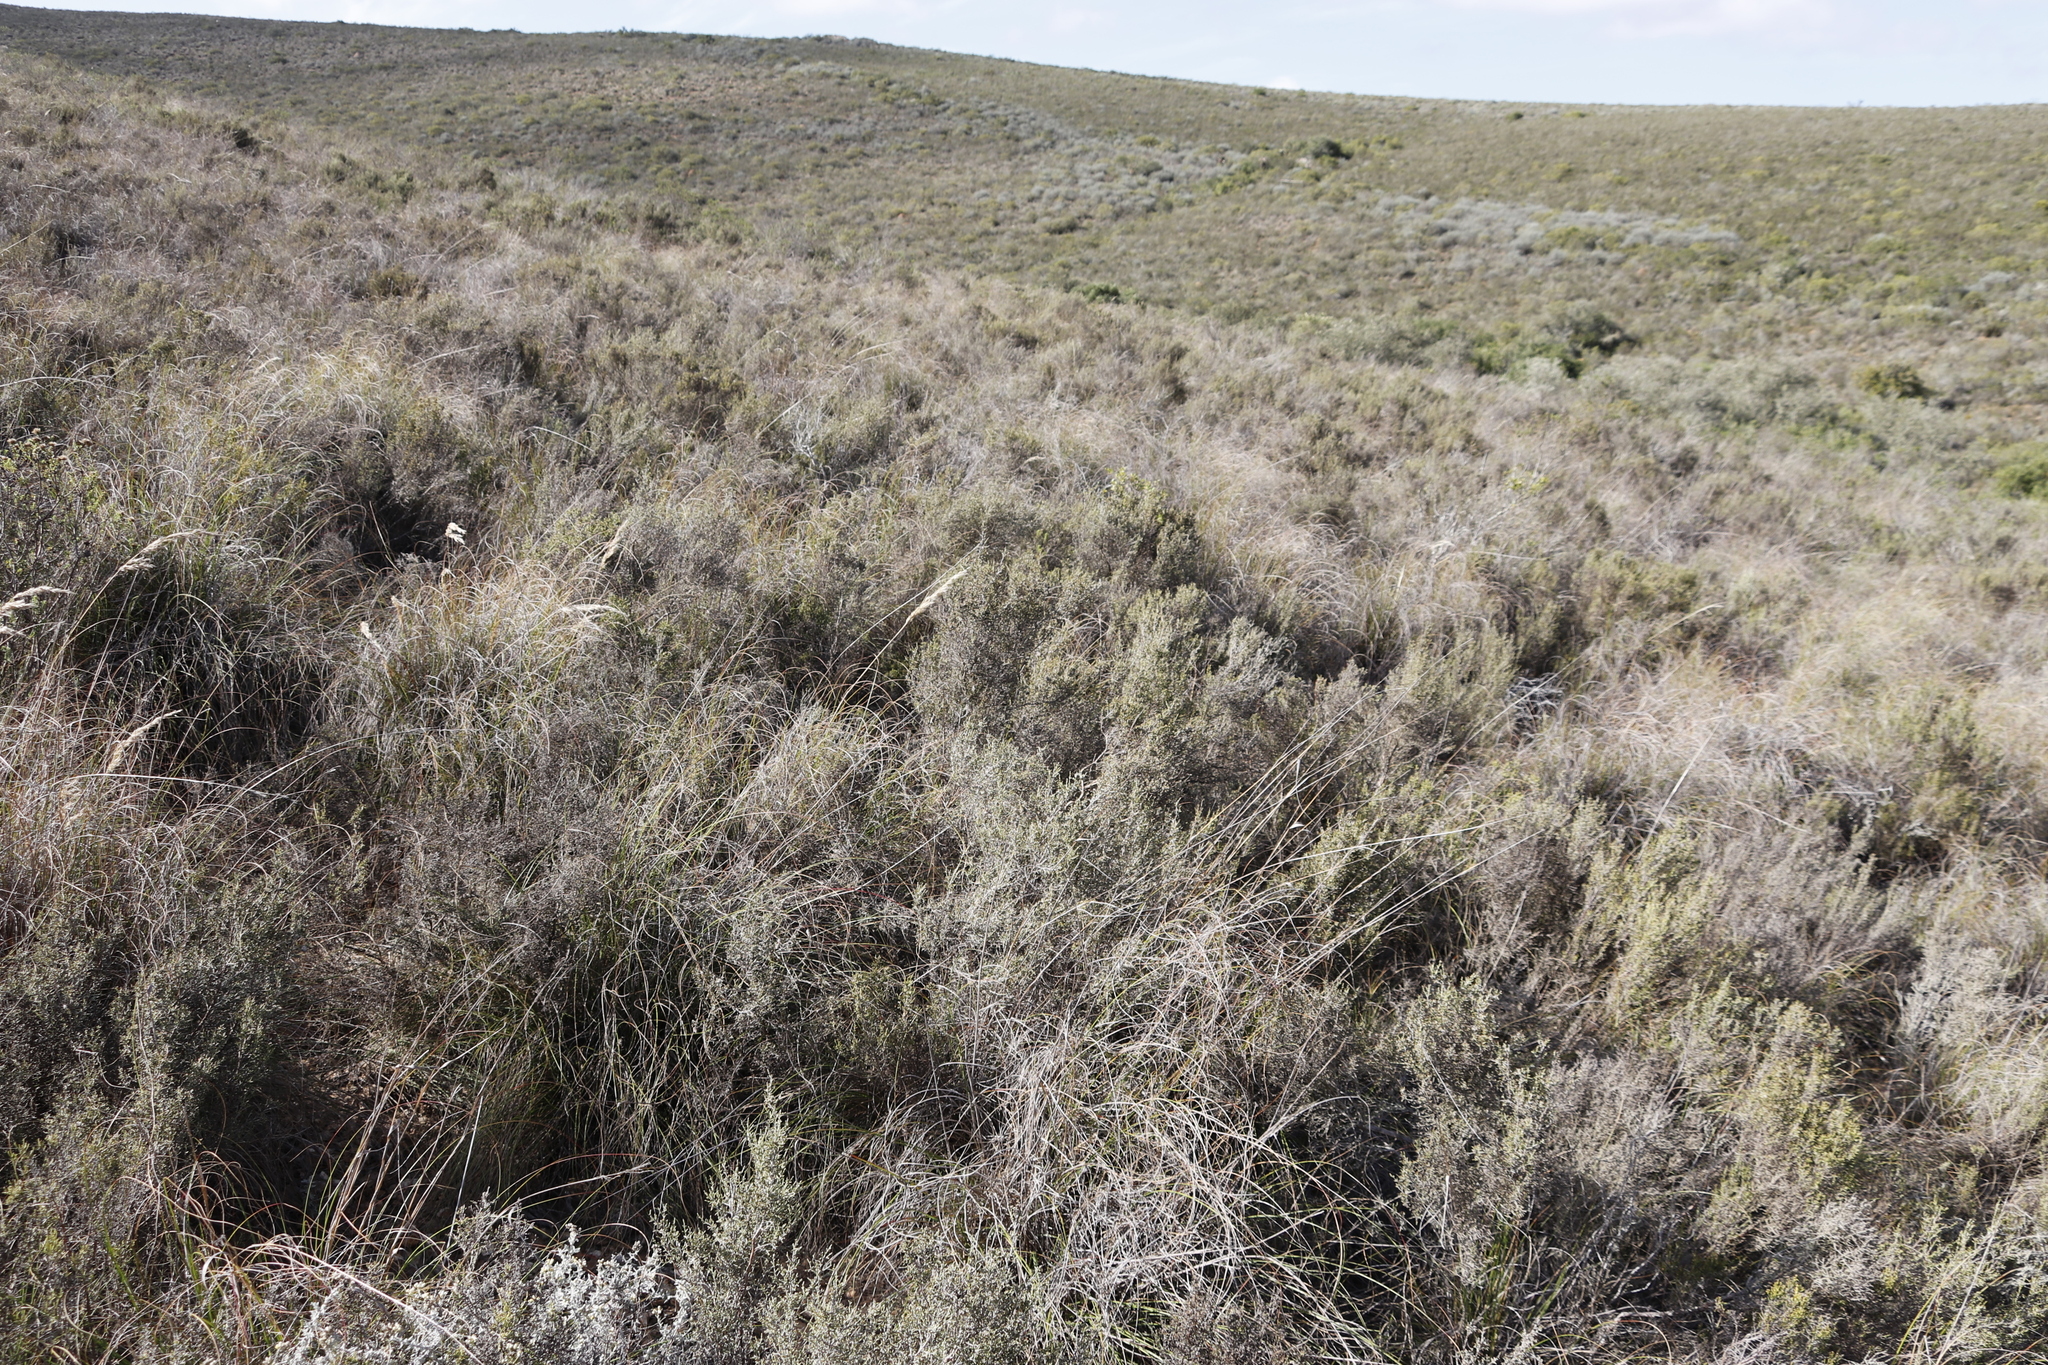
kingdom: Plantae
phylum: Tracheophyta
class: Magnoliopsida
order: Asterales
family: Asteraceae
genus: Dicerothamnus
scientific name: Dicerothamnus rhinocerotis
